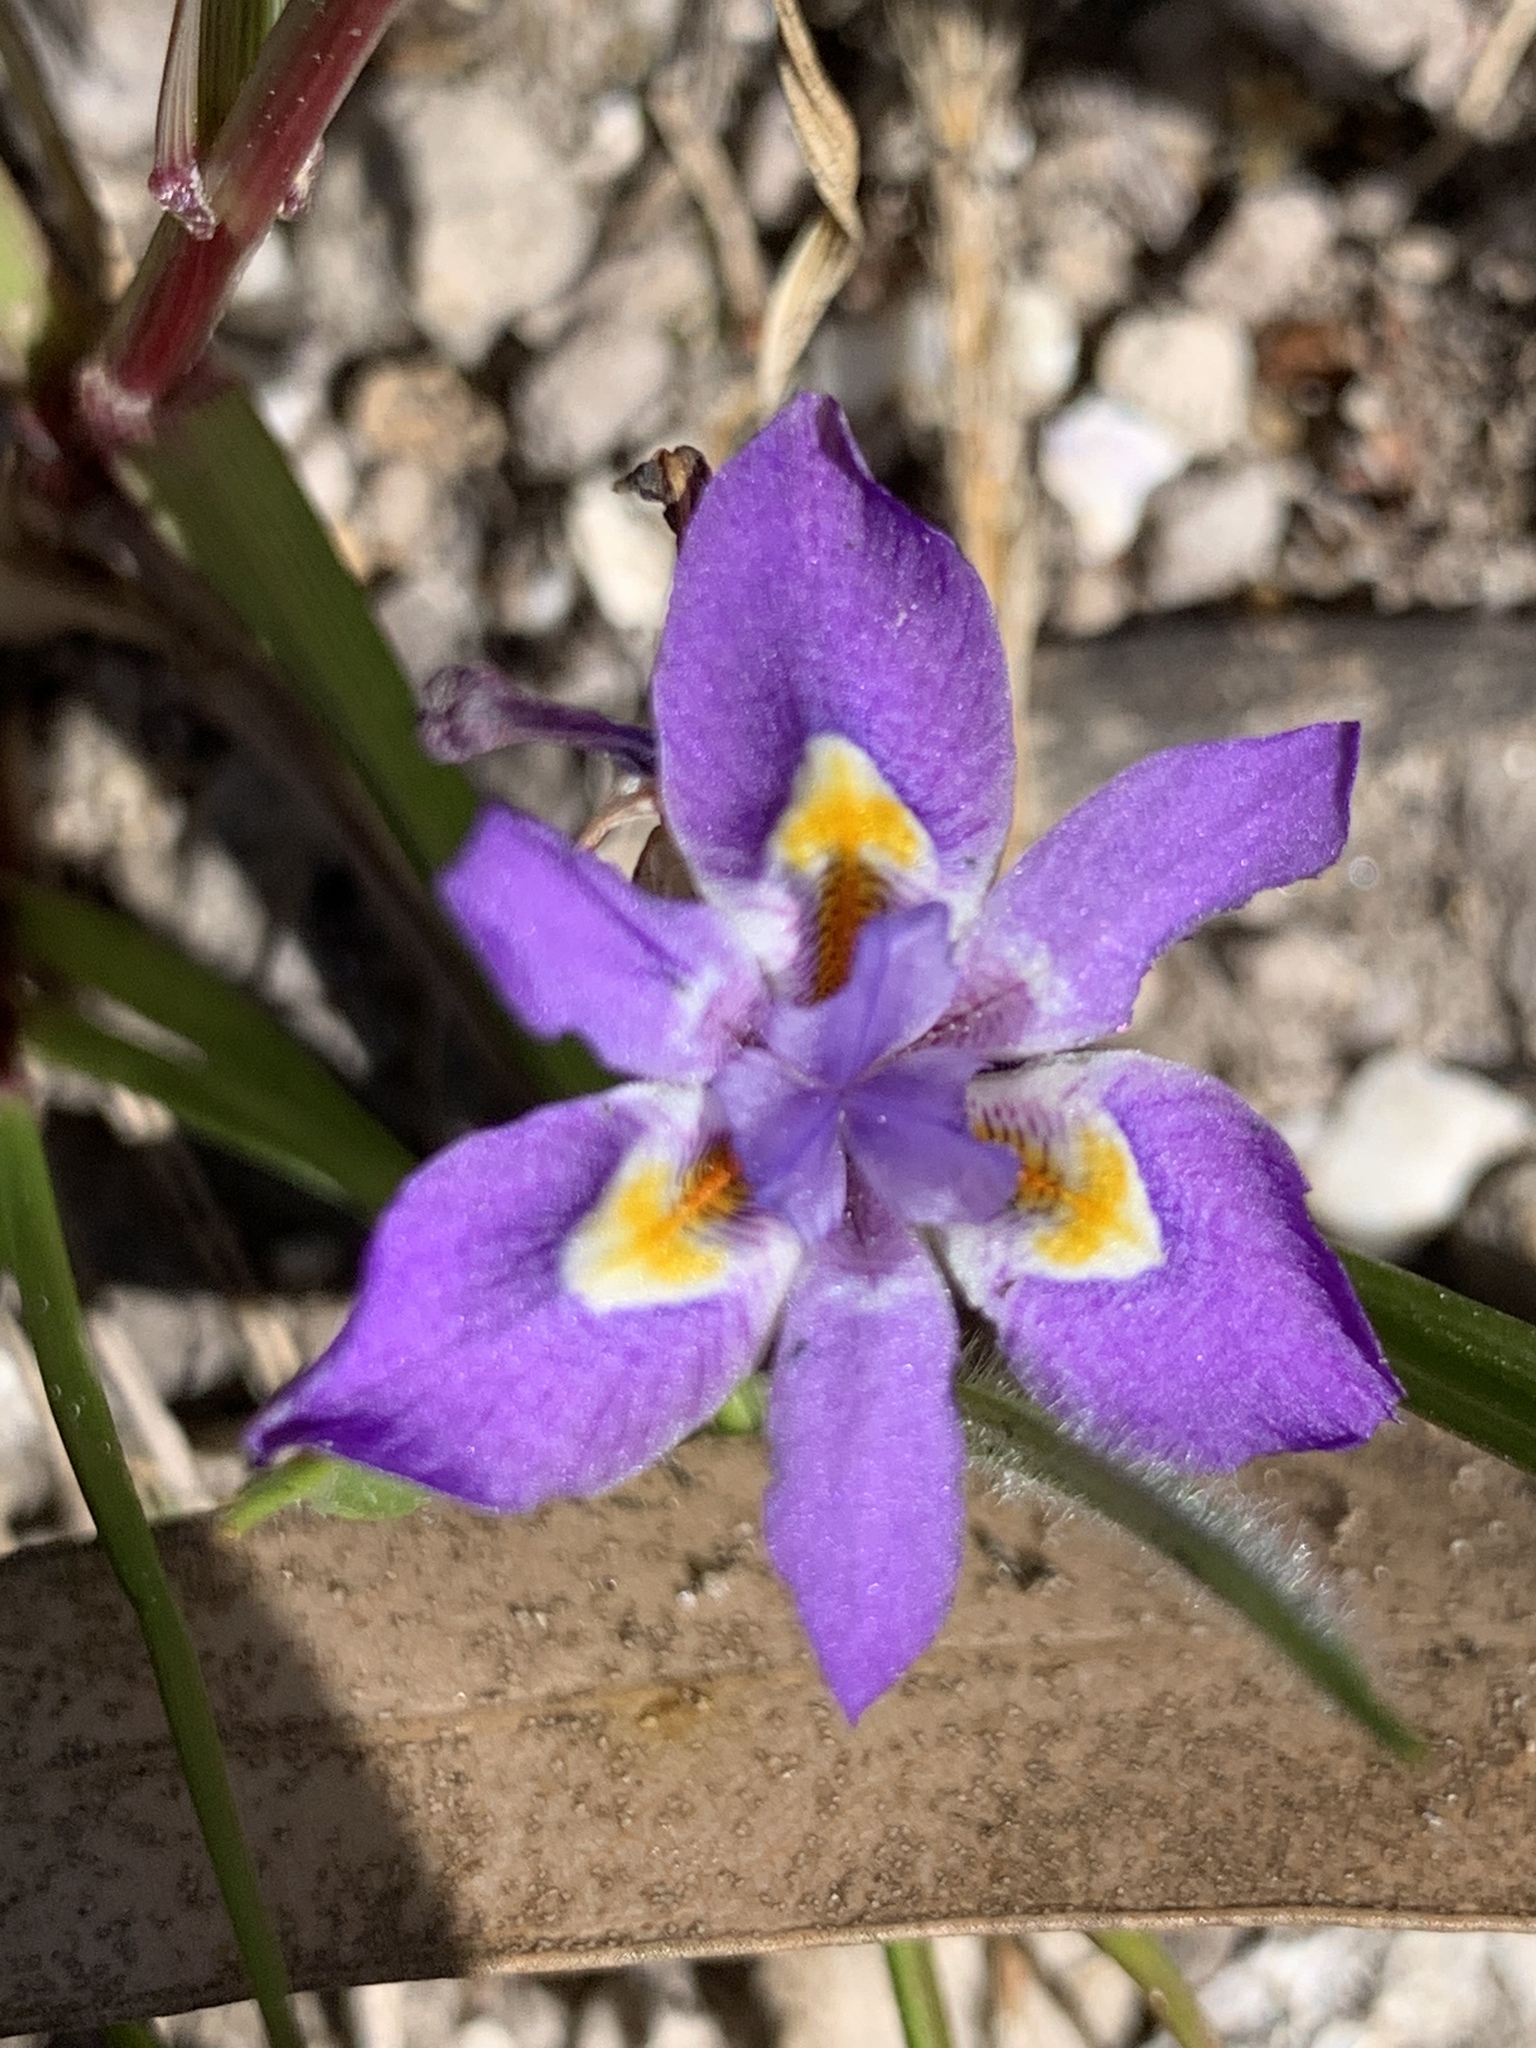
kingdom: Plantae
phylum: Tracheophyta
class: Liliopsida
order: Asparagales
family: Iridaceae
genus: Moraea
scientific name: Moraea setifolia
